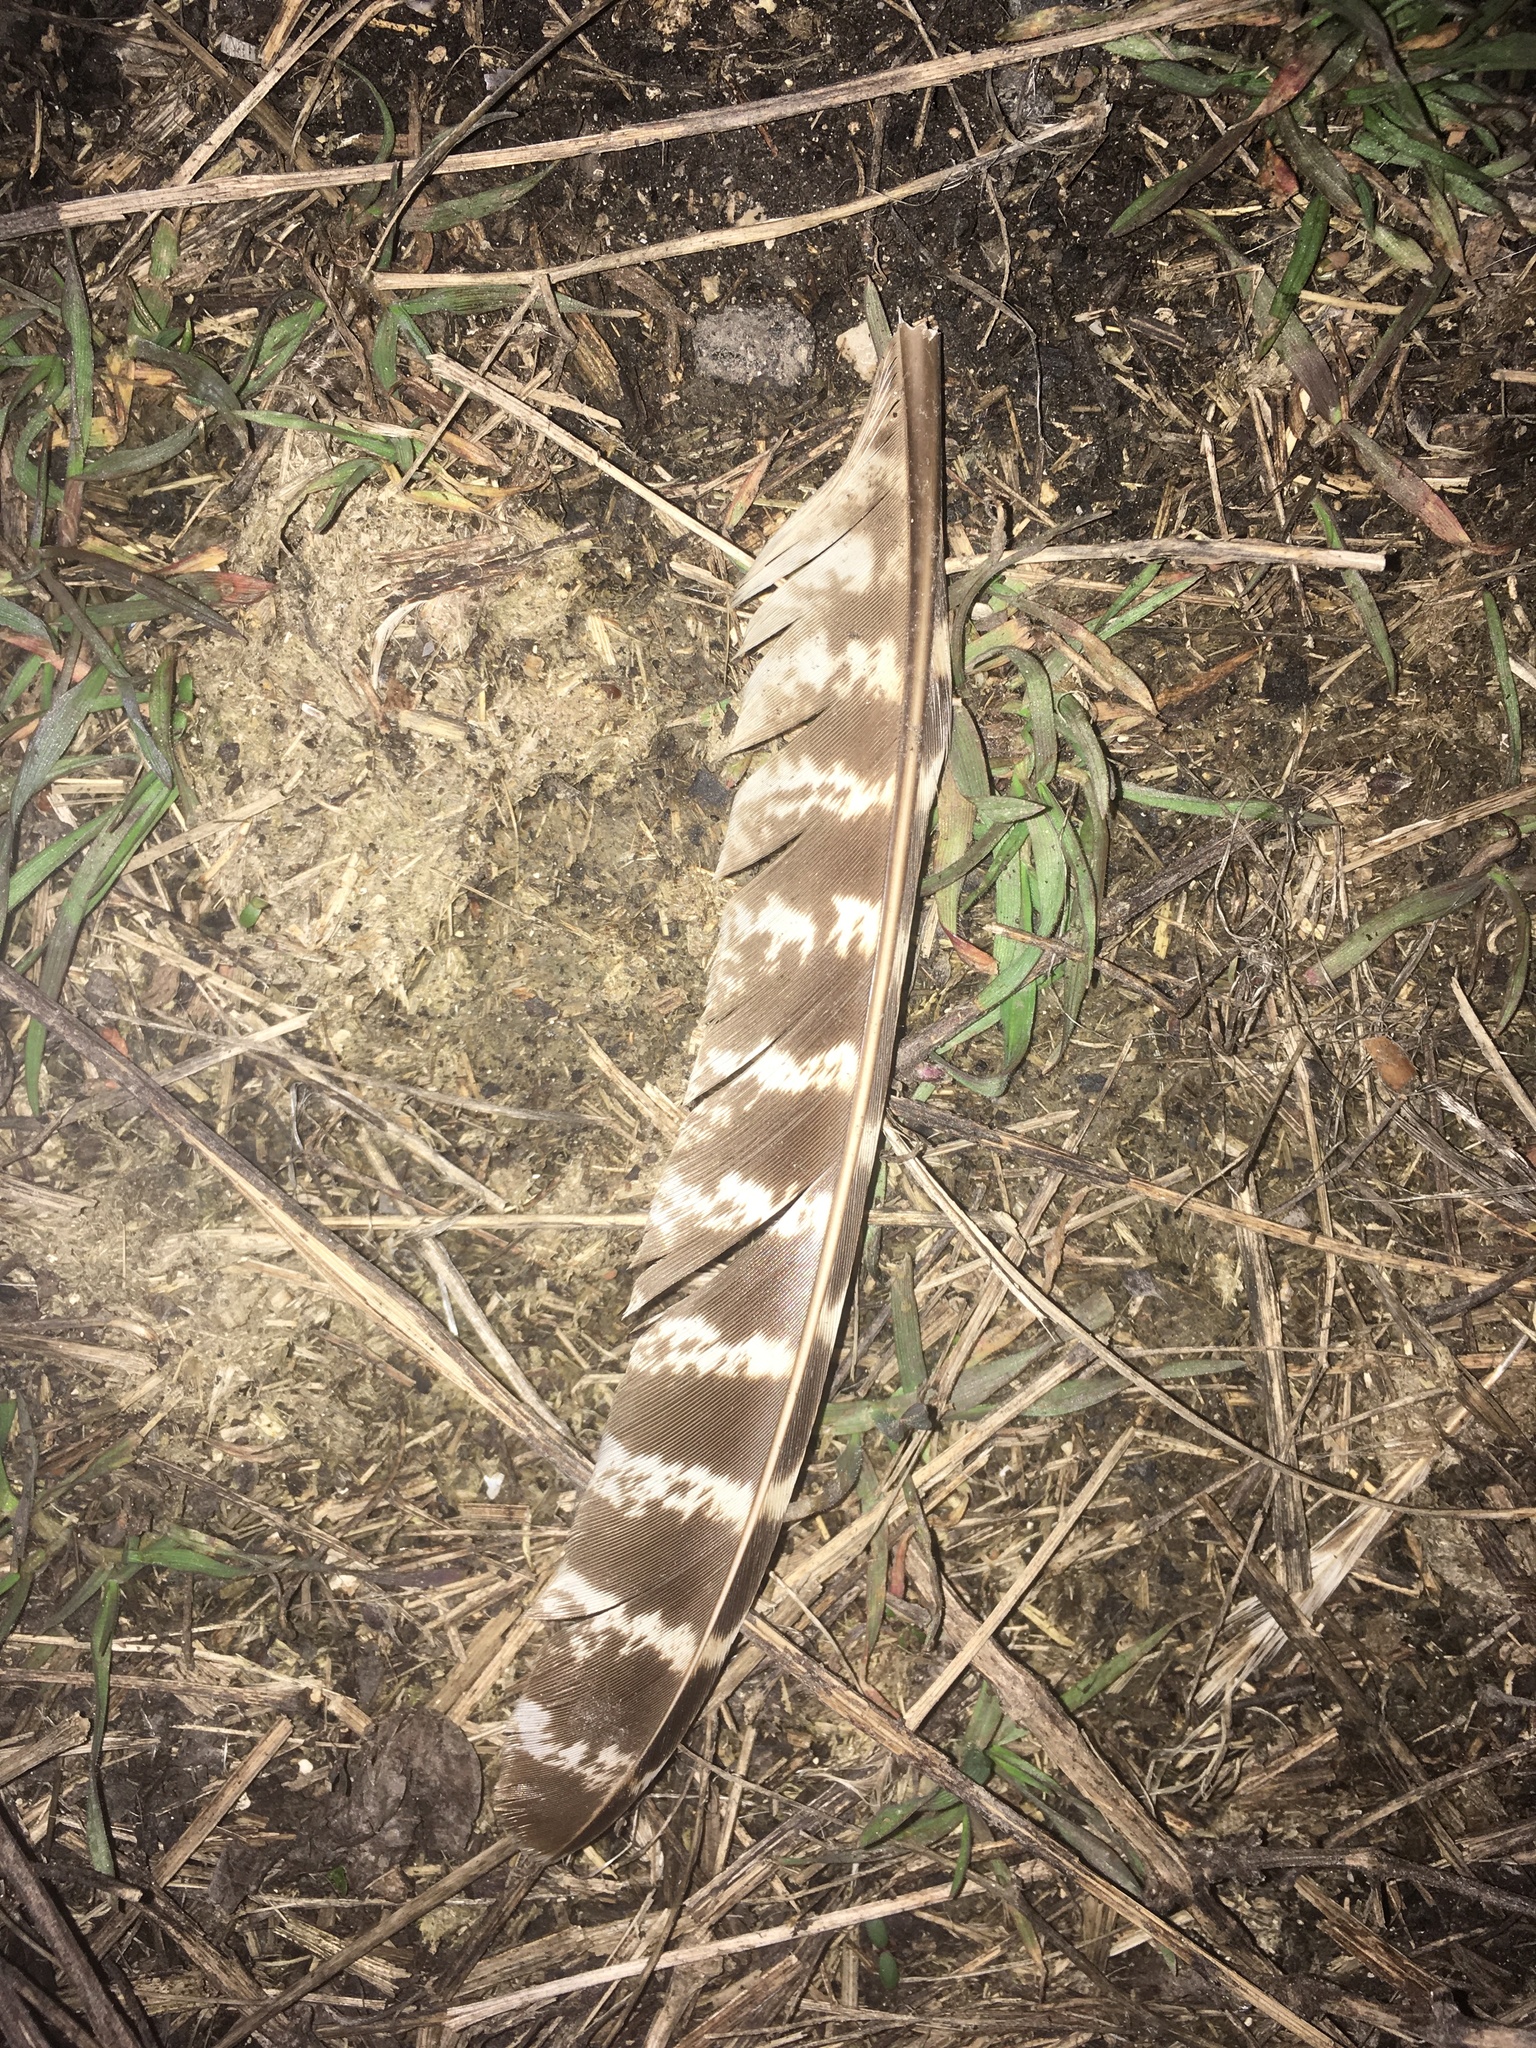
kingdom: Animalia
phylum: Chordata
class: Aves
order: Galliformes
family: Phasianidae
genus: Phasianus
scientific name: Phasianus colchicus
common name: Common pheasant
